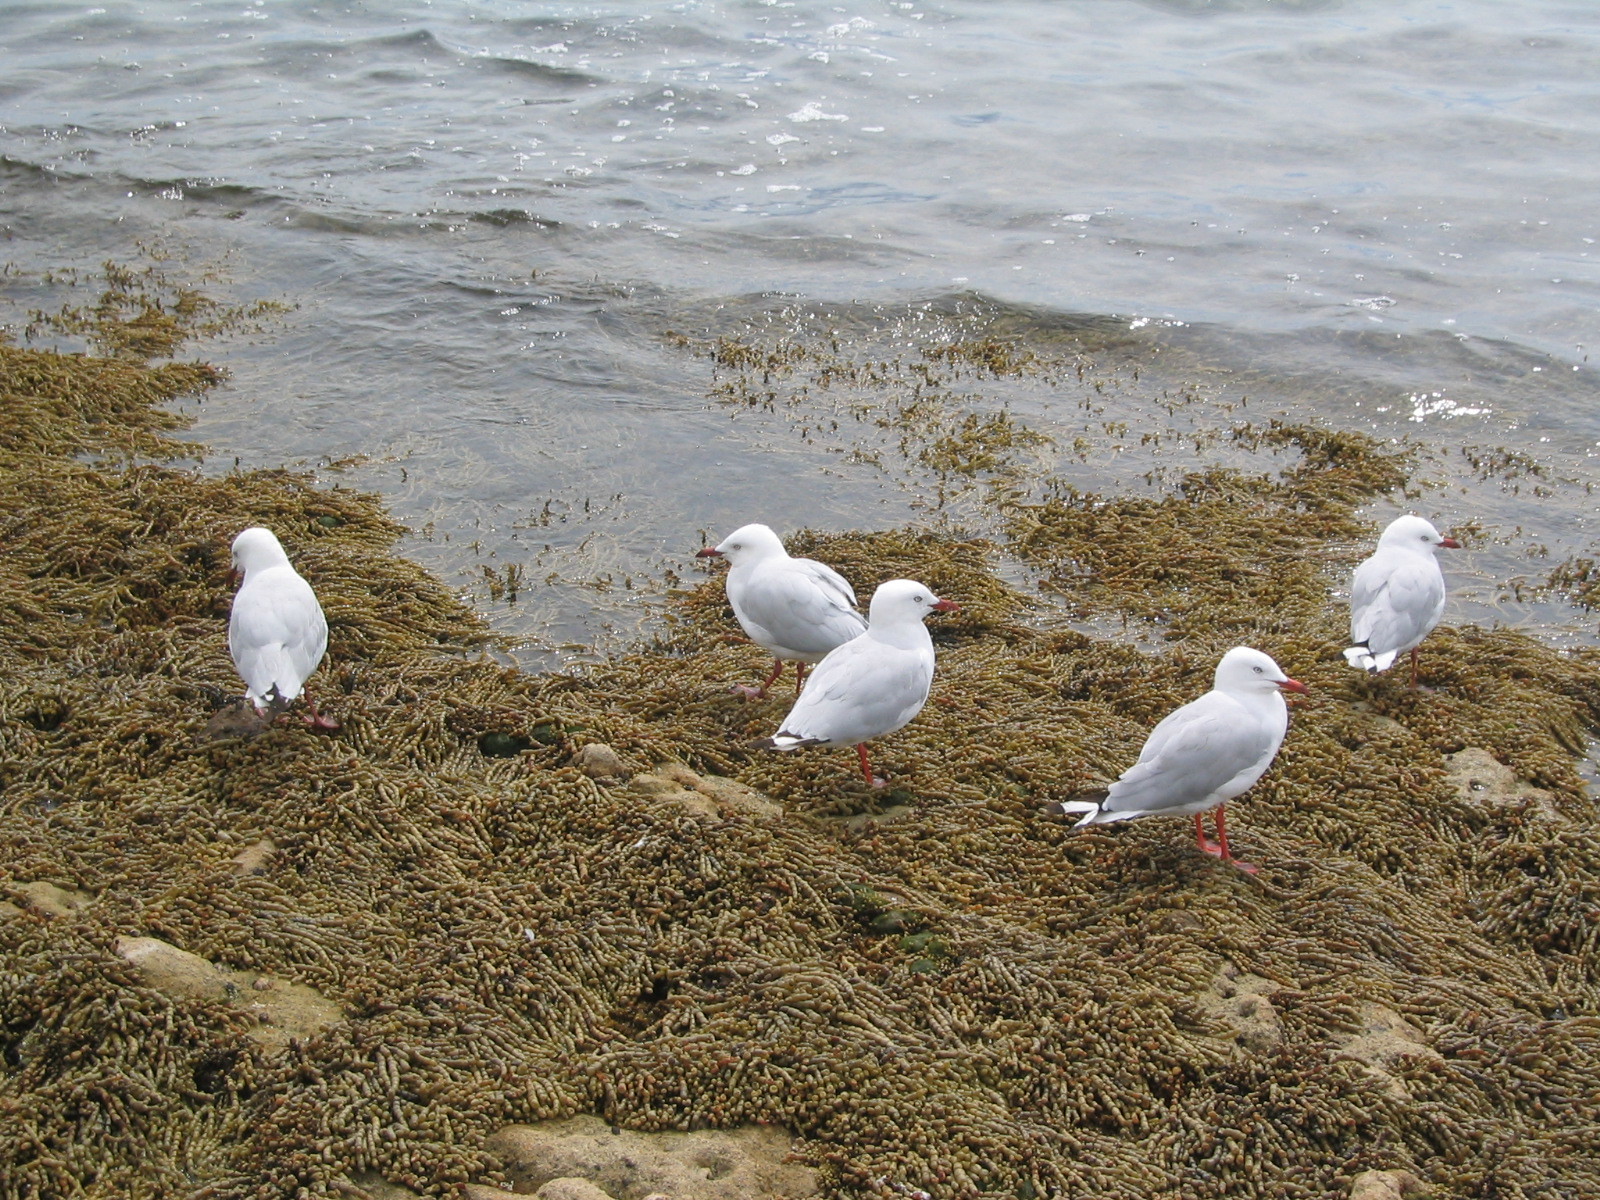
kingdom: Animalia
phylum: Chordata
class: Aves
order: Charadriiformes
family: Laridae
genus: Chroicocephalus
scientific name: Chroicocephalus novaehollandiae
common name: Silver gull
